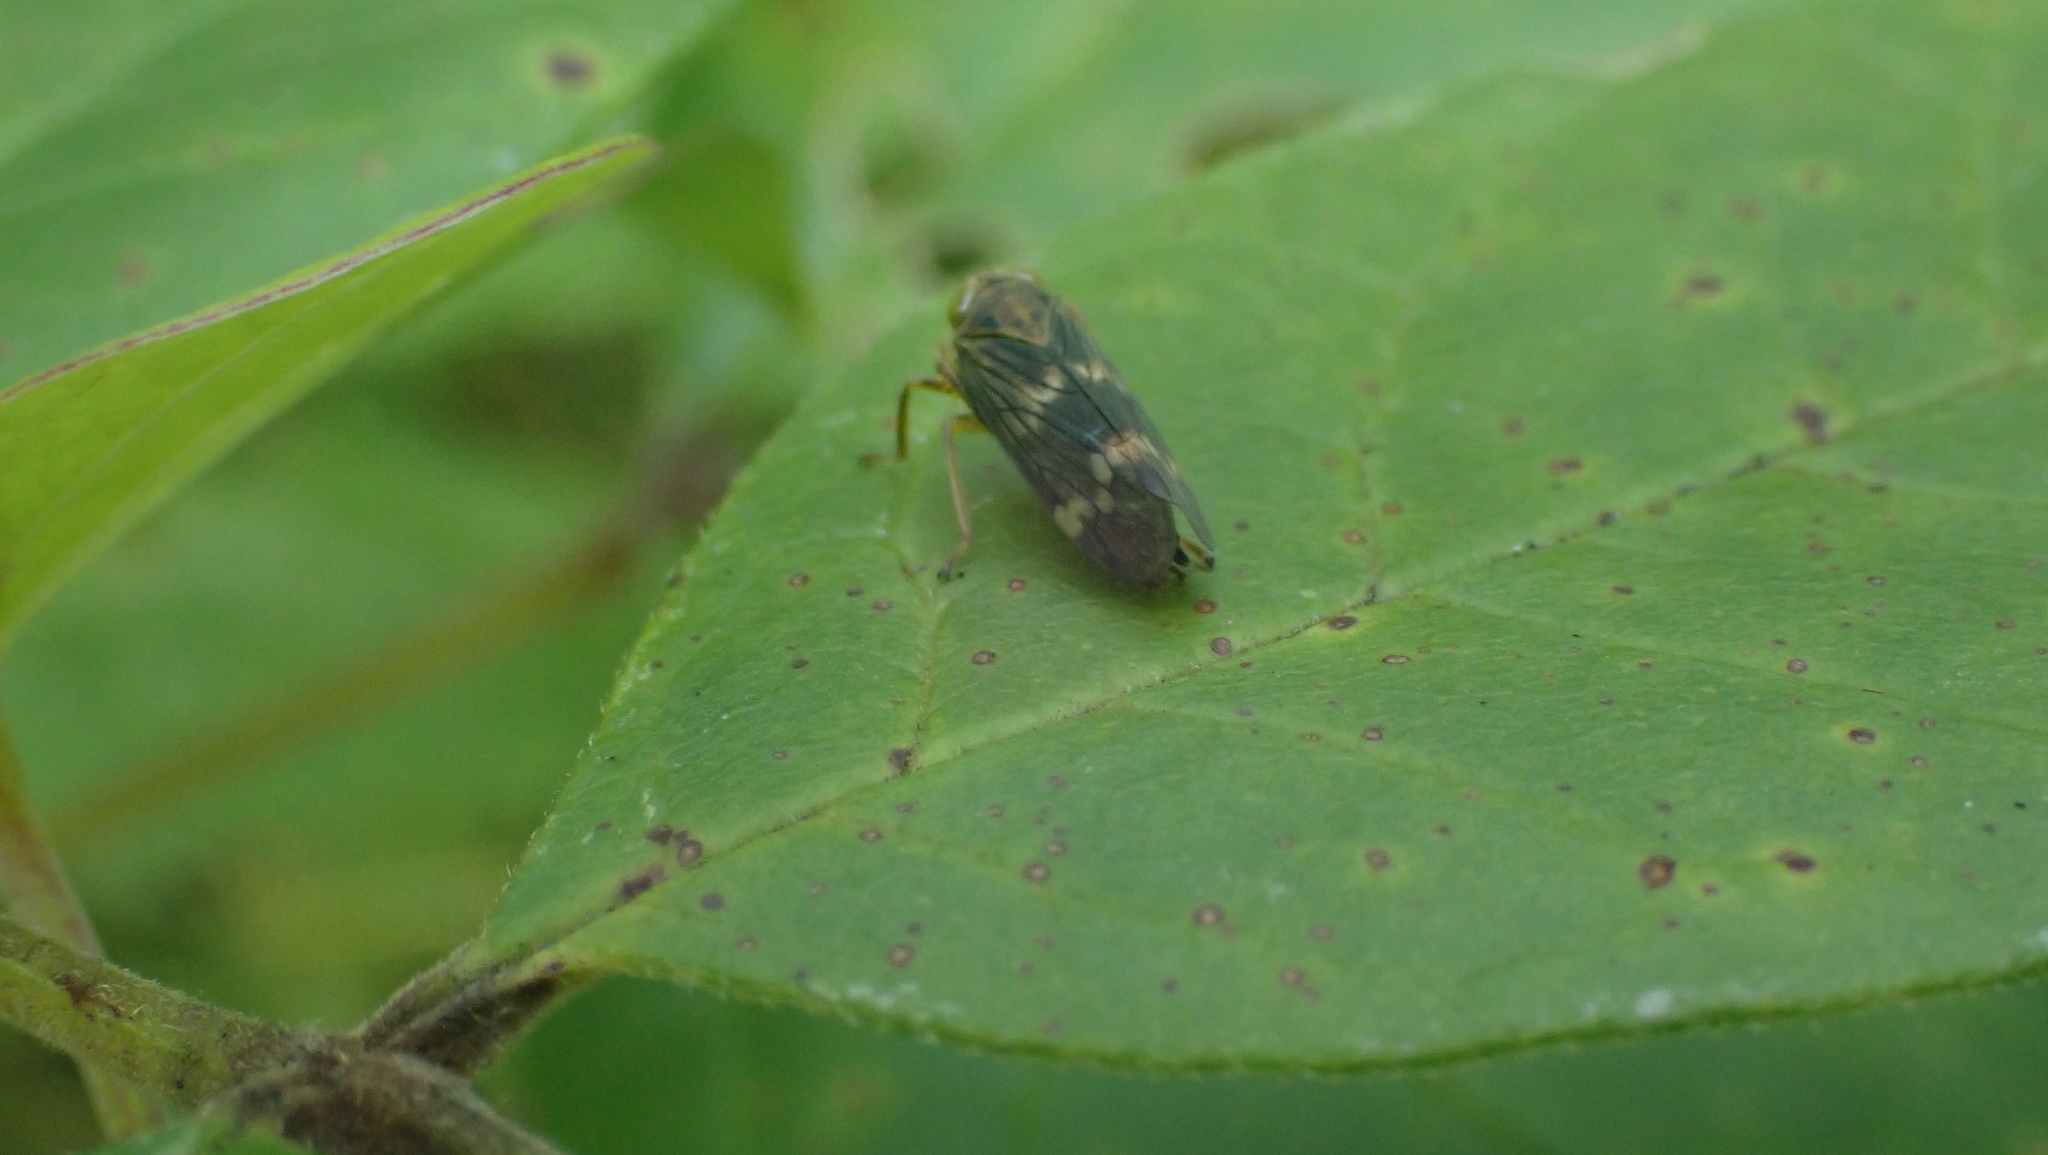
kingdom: Animalia
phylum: Arthropoda
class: Insecta
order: Hemiptera
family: Cicadellidae
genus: Jikradia
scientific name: Jikradia olitoria
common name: Coppery leafhopper
